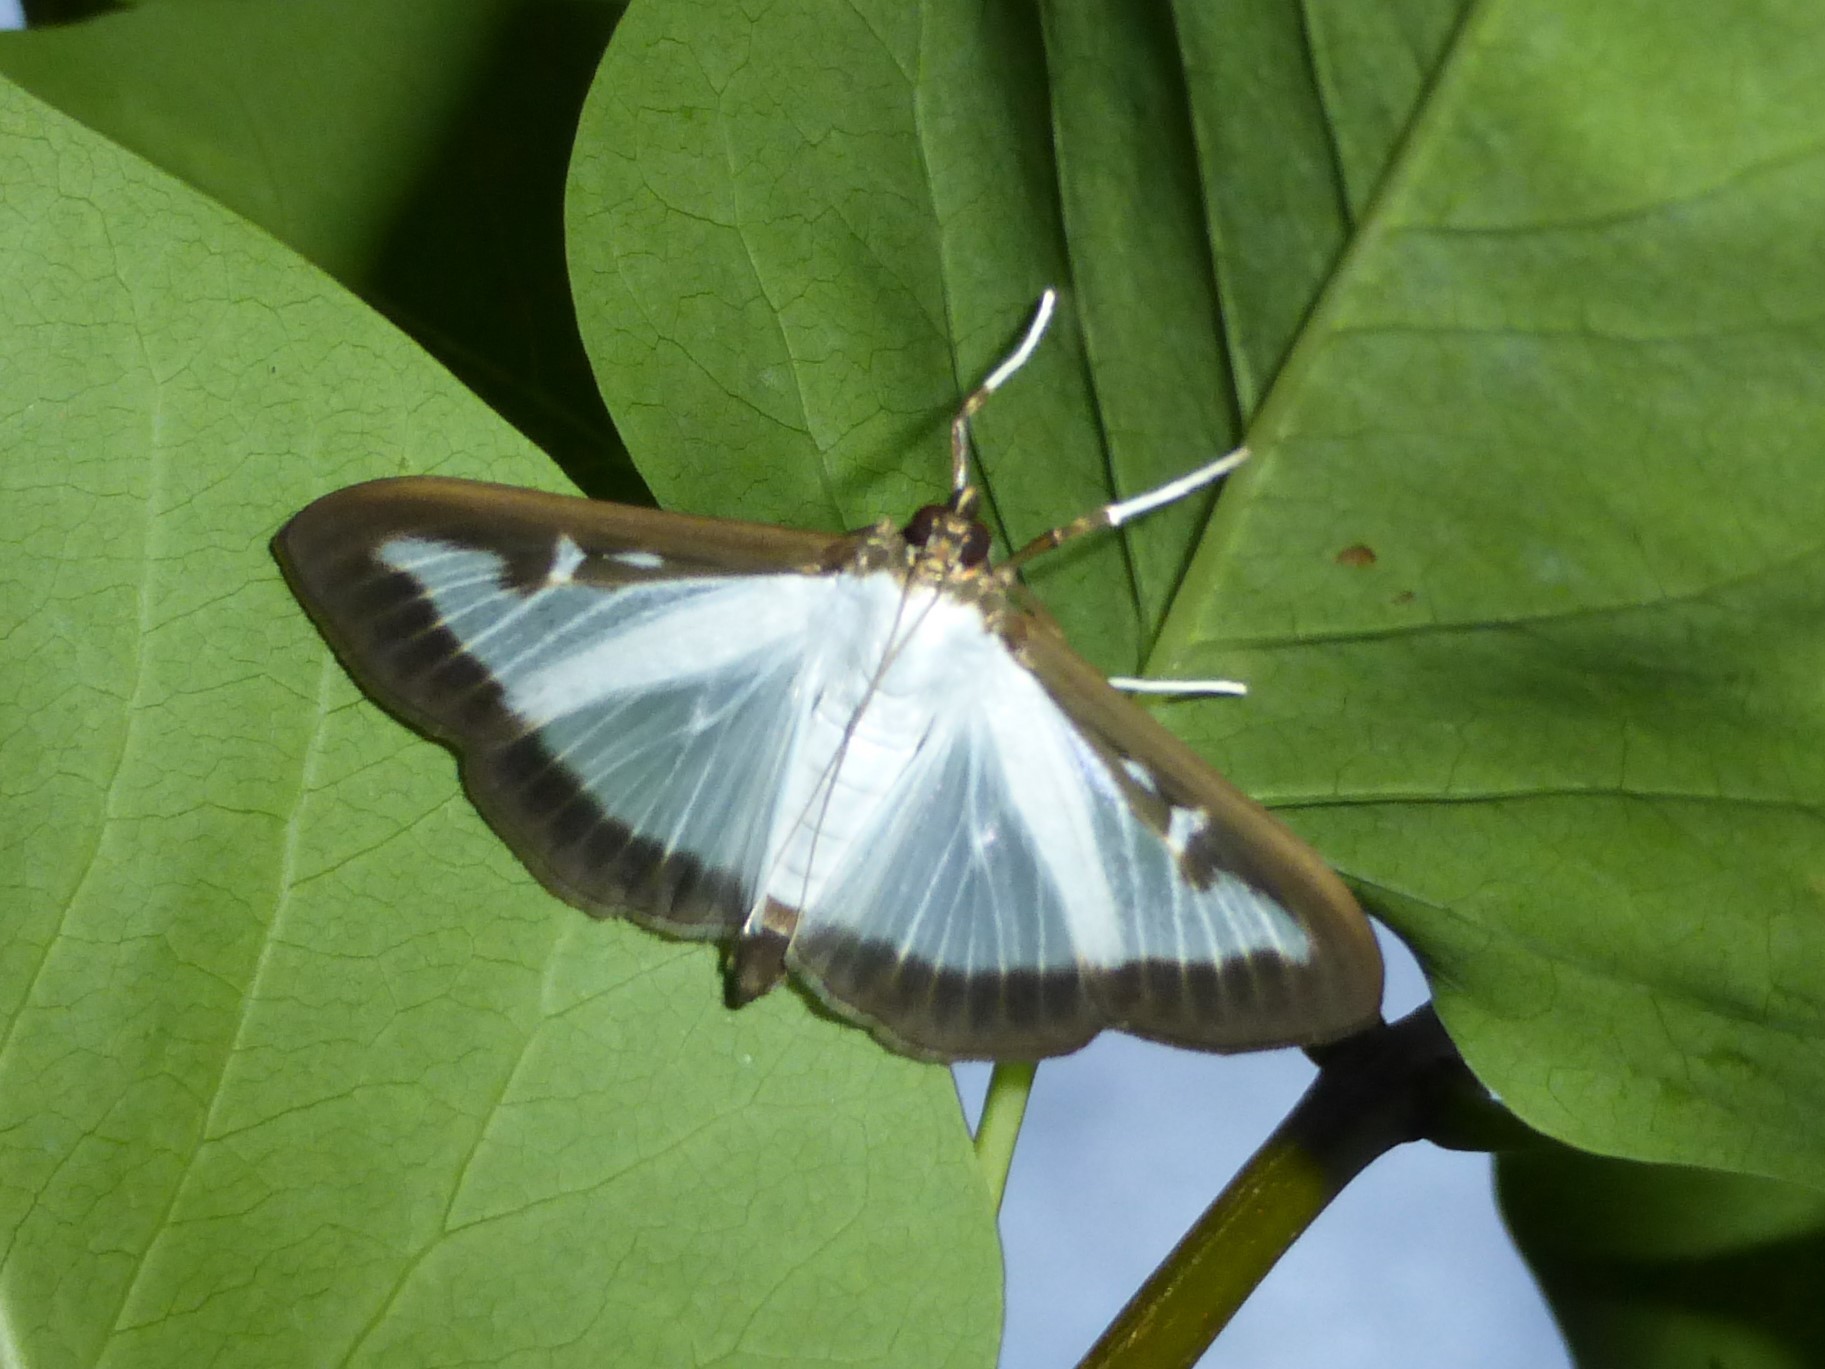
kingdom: Animalia
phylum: Arthropoda
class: Insecta
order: Lepidoptera
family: Crambidae
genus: Cydalima
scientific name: Cydalima perspectalis
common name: Box tree moth
